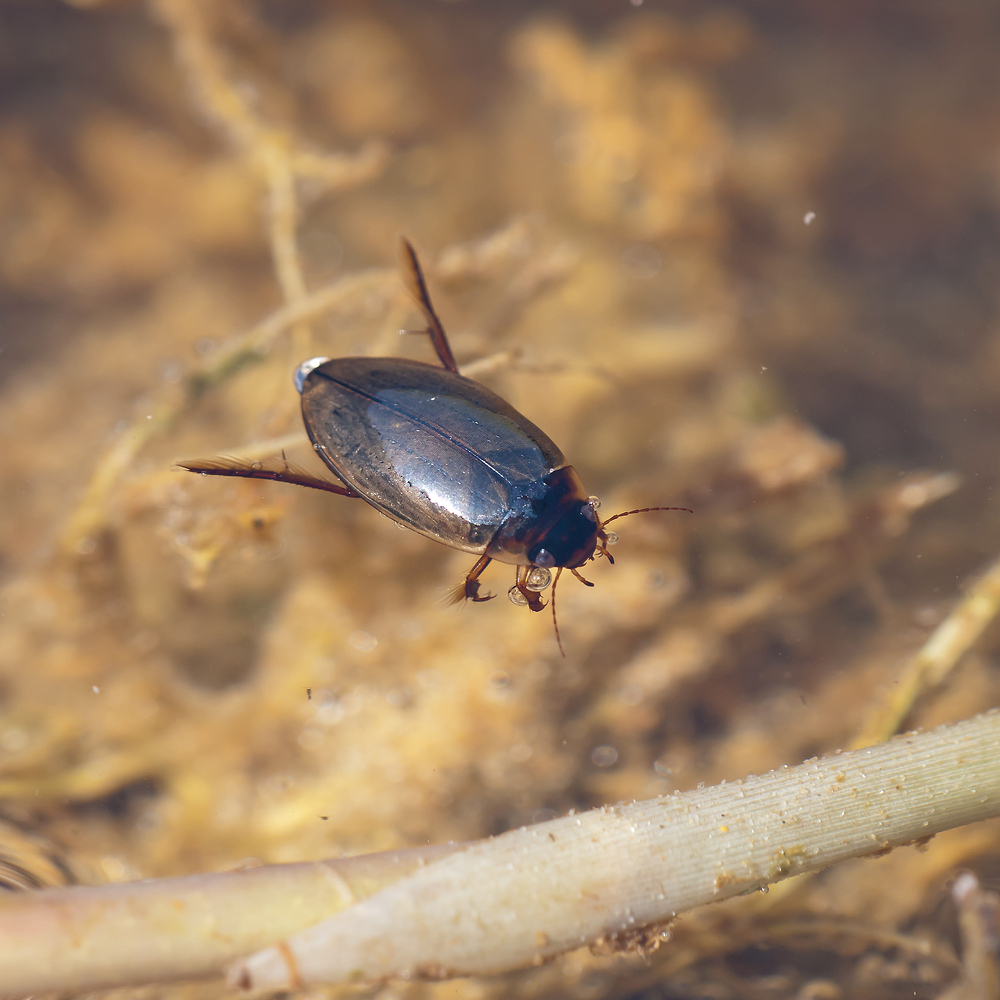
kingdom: Animalia
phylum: Arthropoda
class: Insecta
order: Coleoptera
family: Dytiscidae
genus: Colymbetes
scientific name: Colymbetes fuscus
